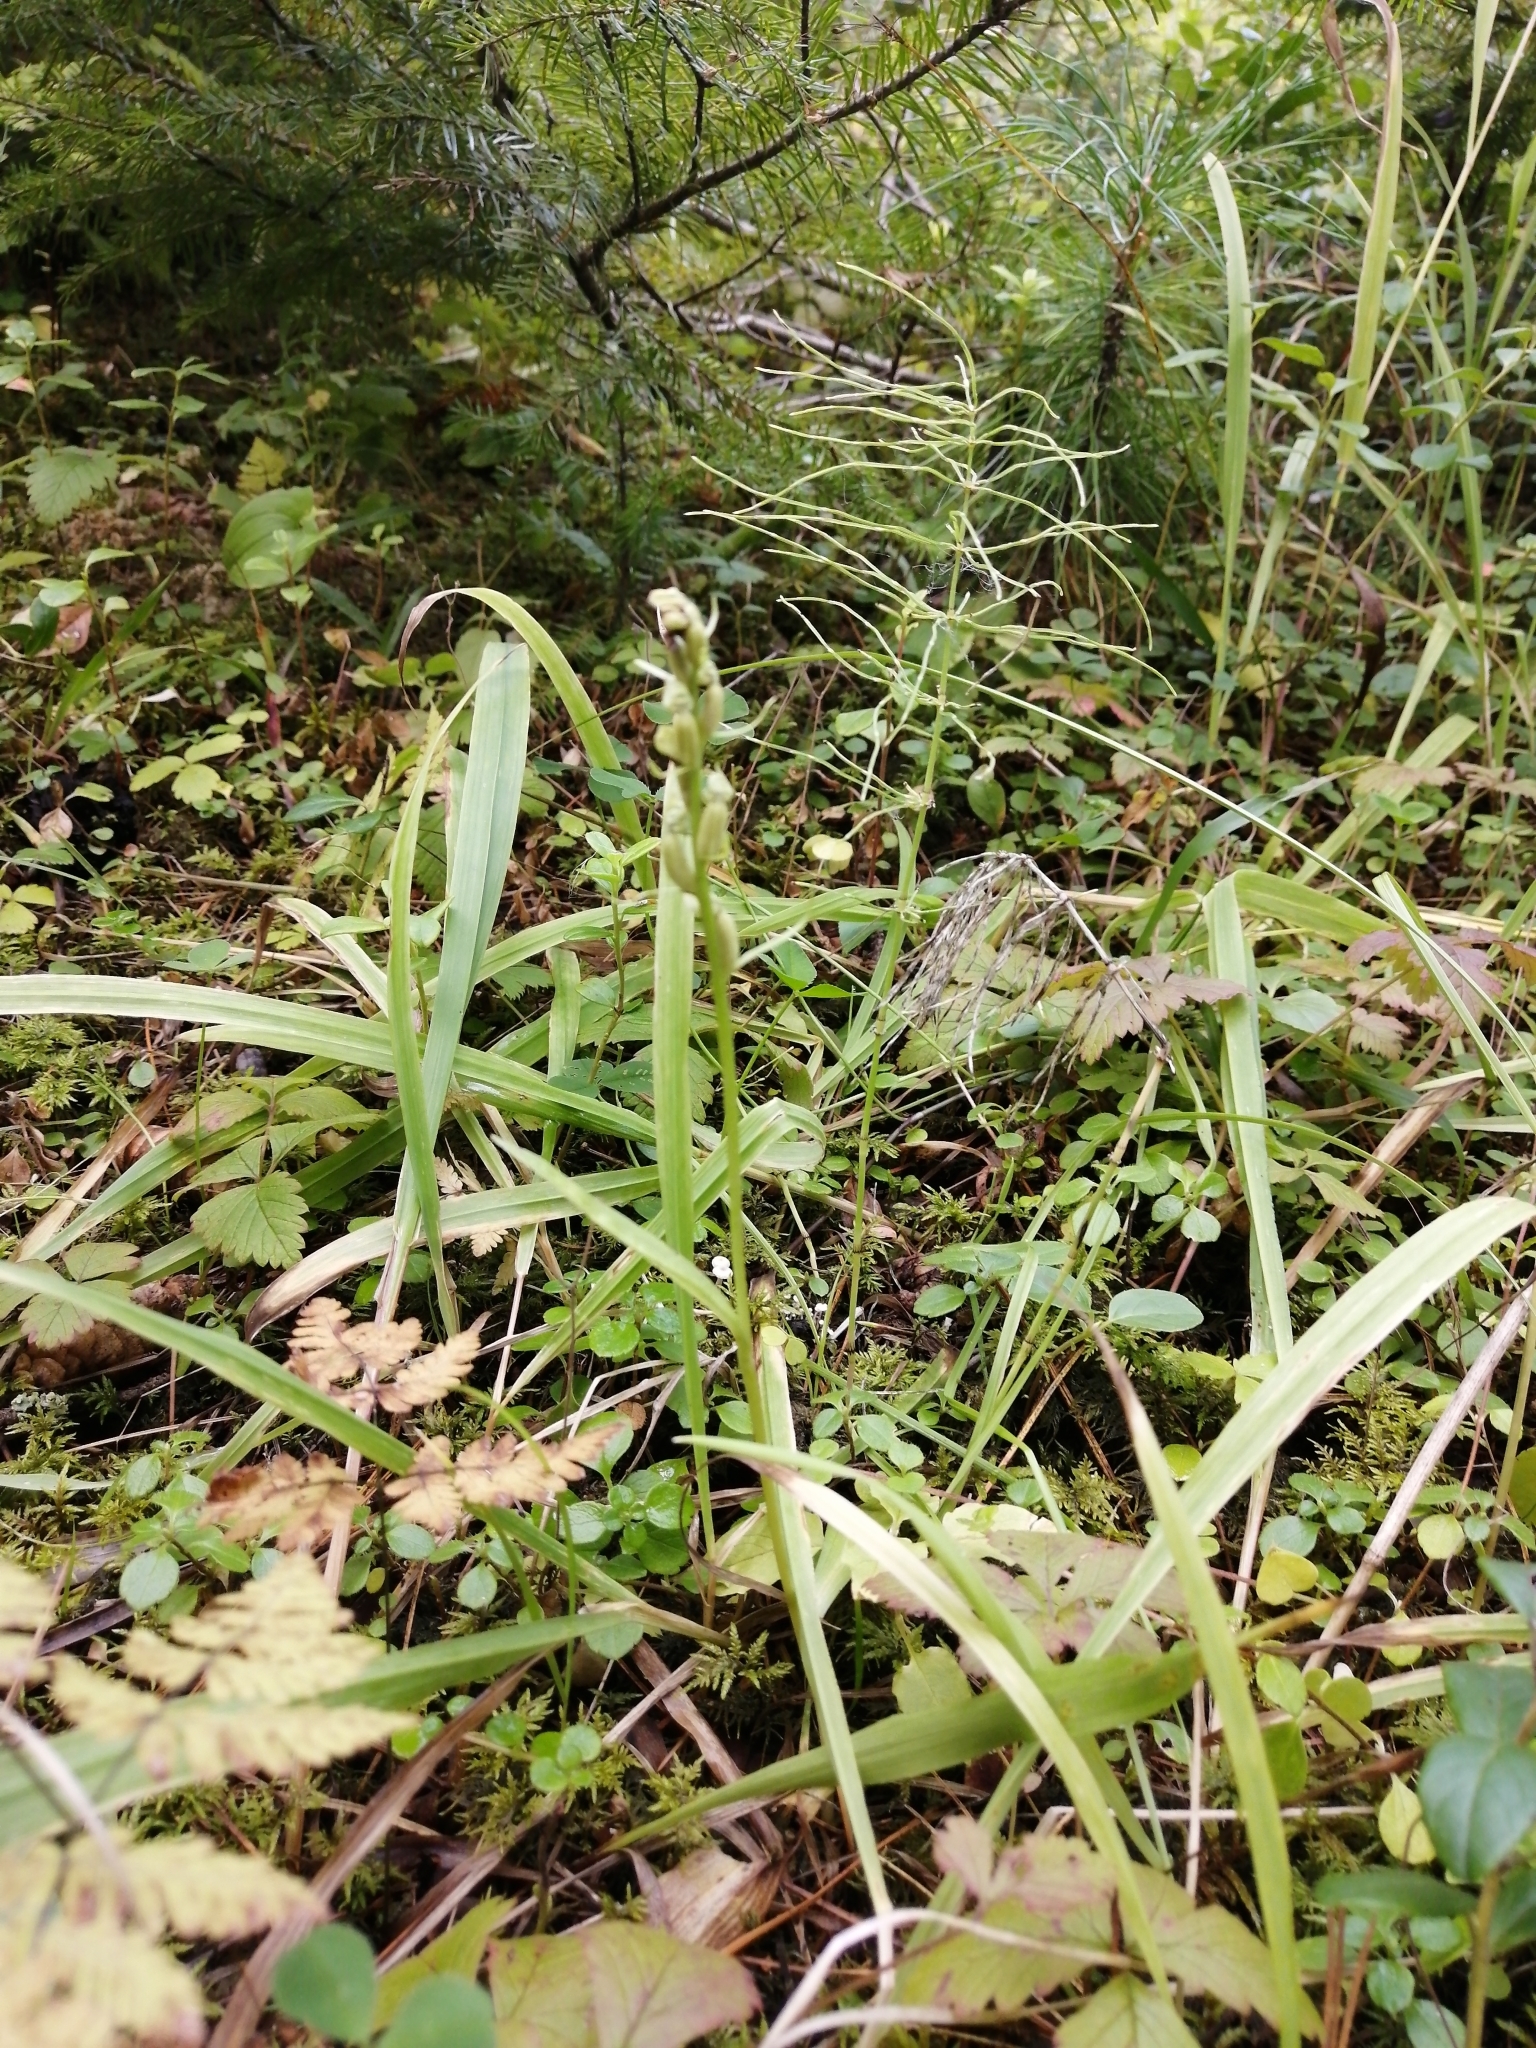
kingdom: Plantae
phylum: Tracheophyta
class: Liliopsida
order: Asparagales
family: Orchidaceae
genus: Dactylorhiza
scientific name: Dactylorhiza viridis
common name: Longbract frog orchid
